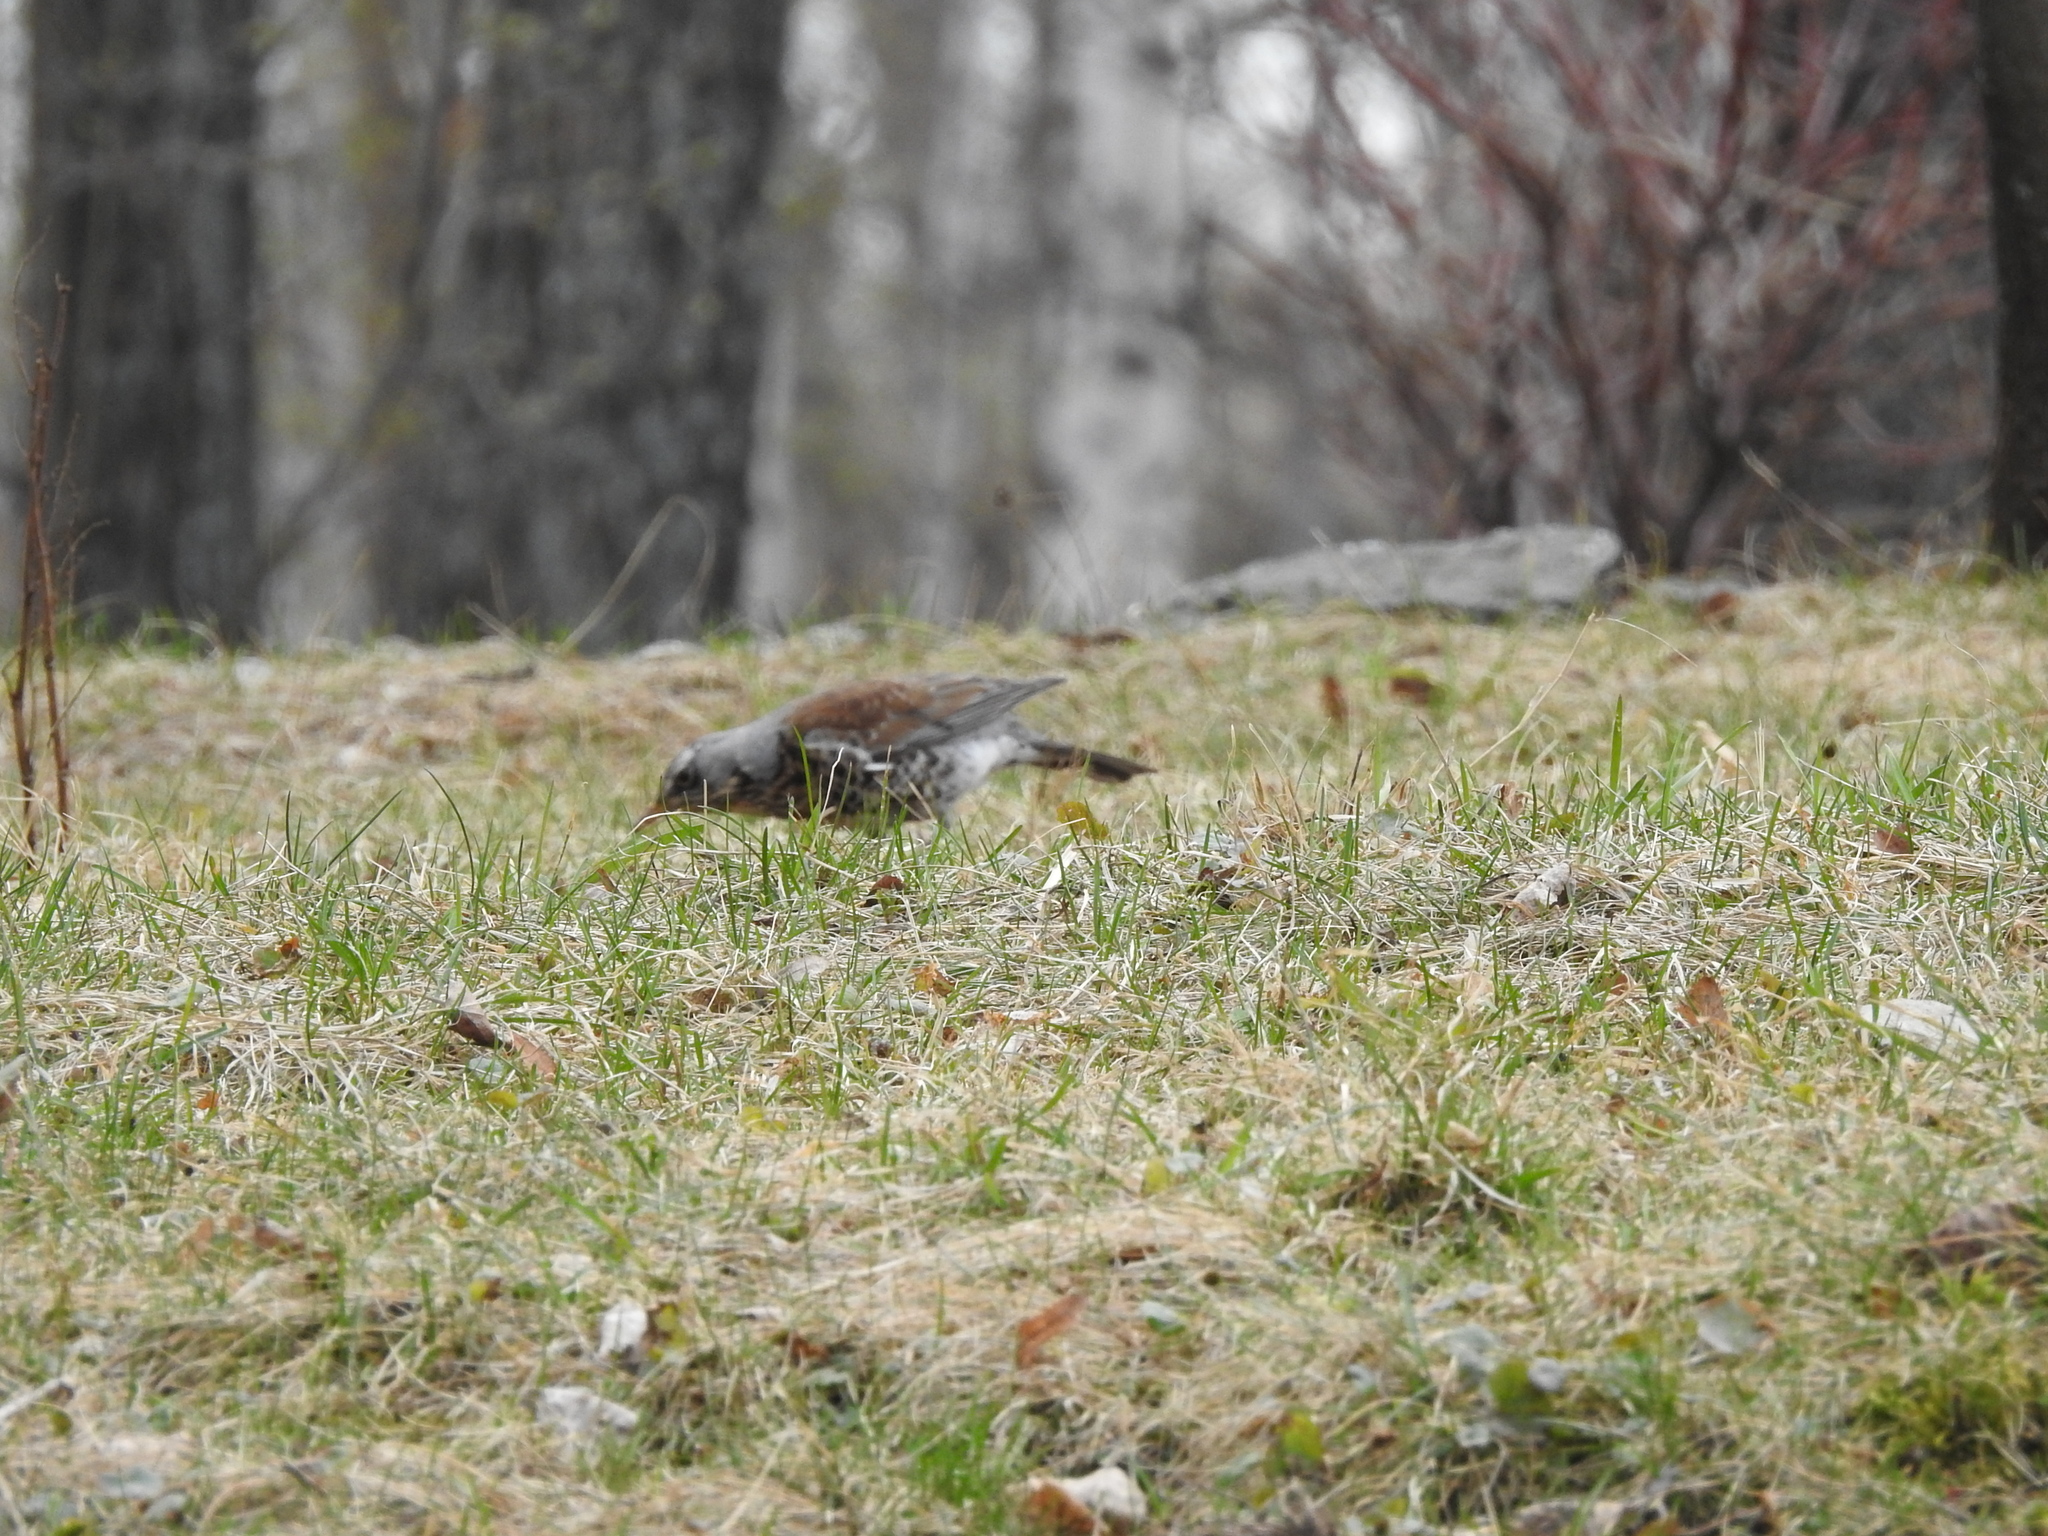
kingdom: Animalia
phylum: Chordata
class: Aves
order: Passeriformes
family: Turdidae
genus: Turdus
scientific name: Turdus pilaris
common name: Fieldfare
